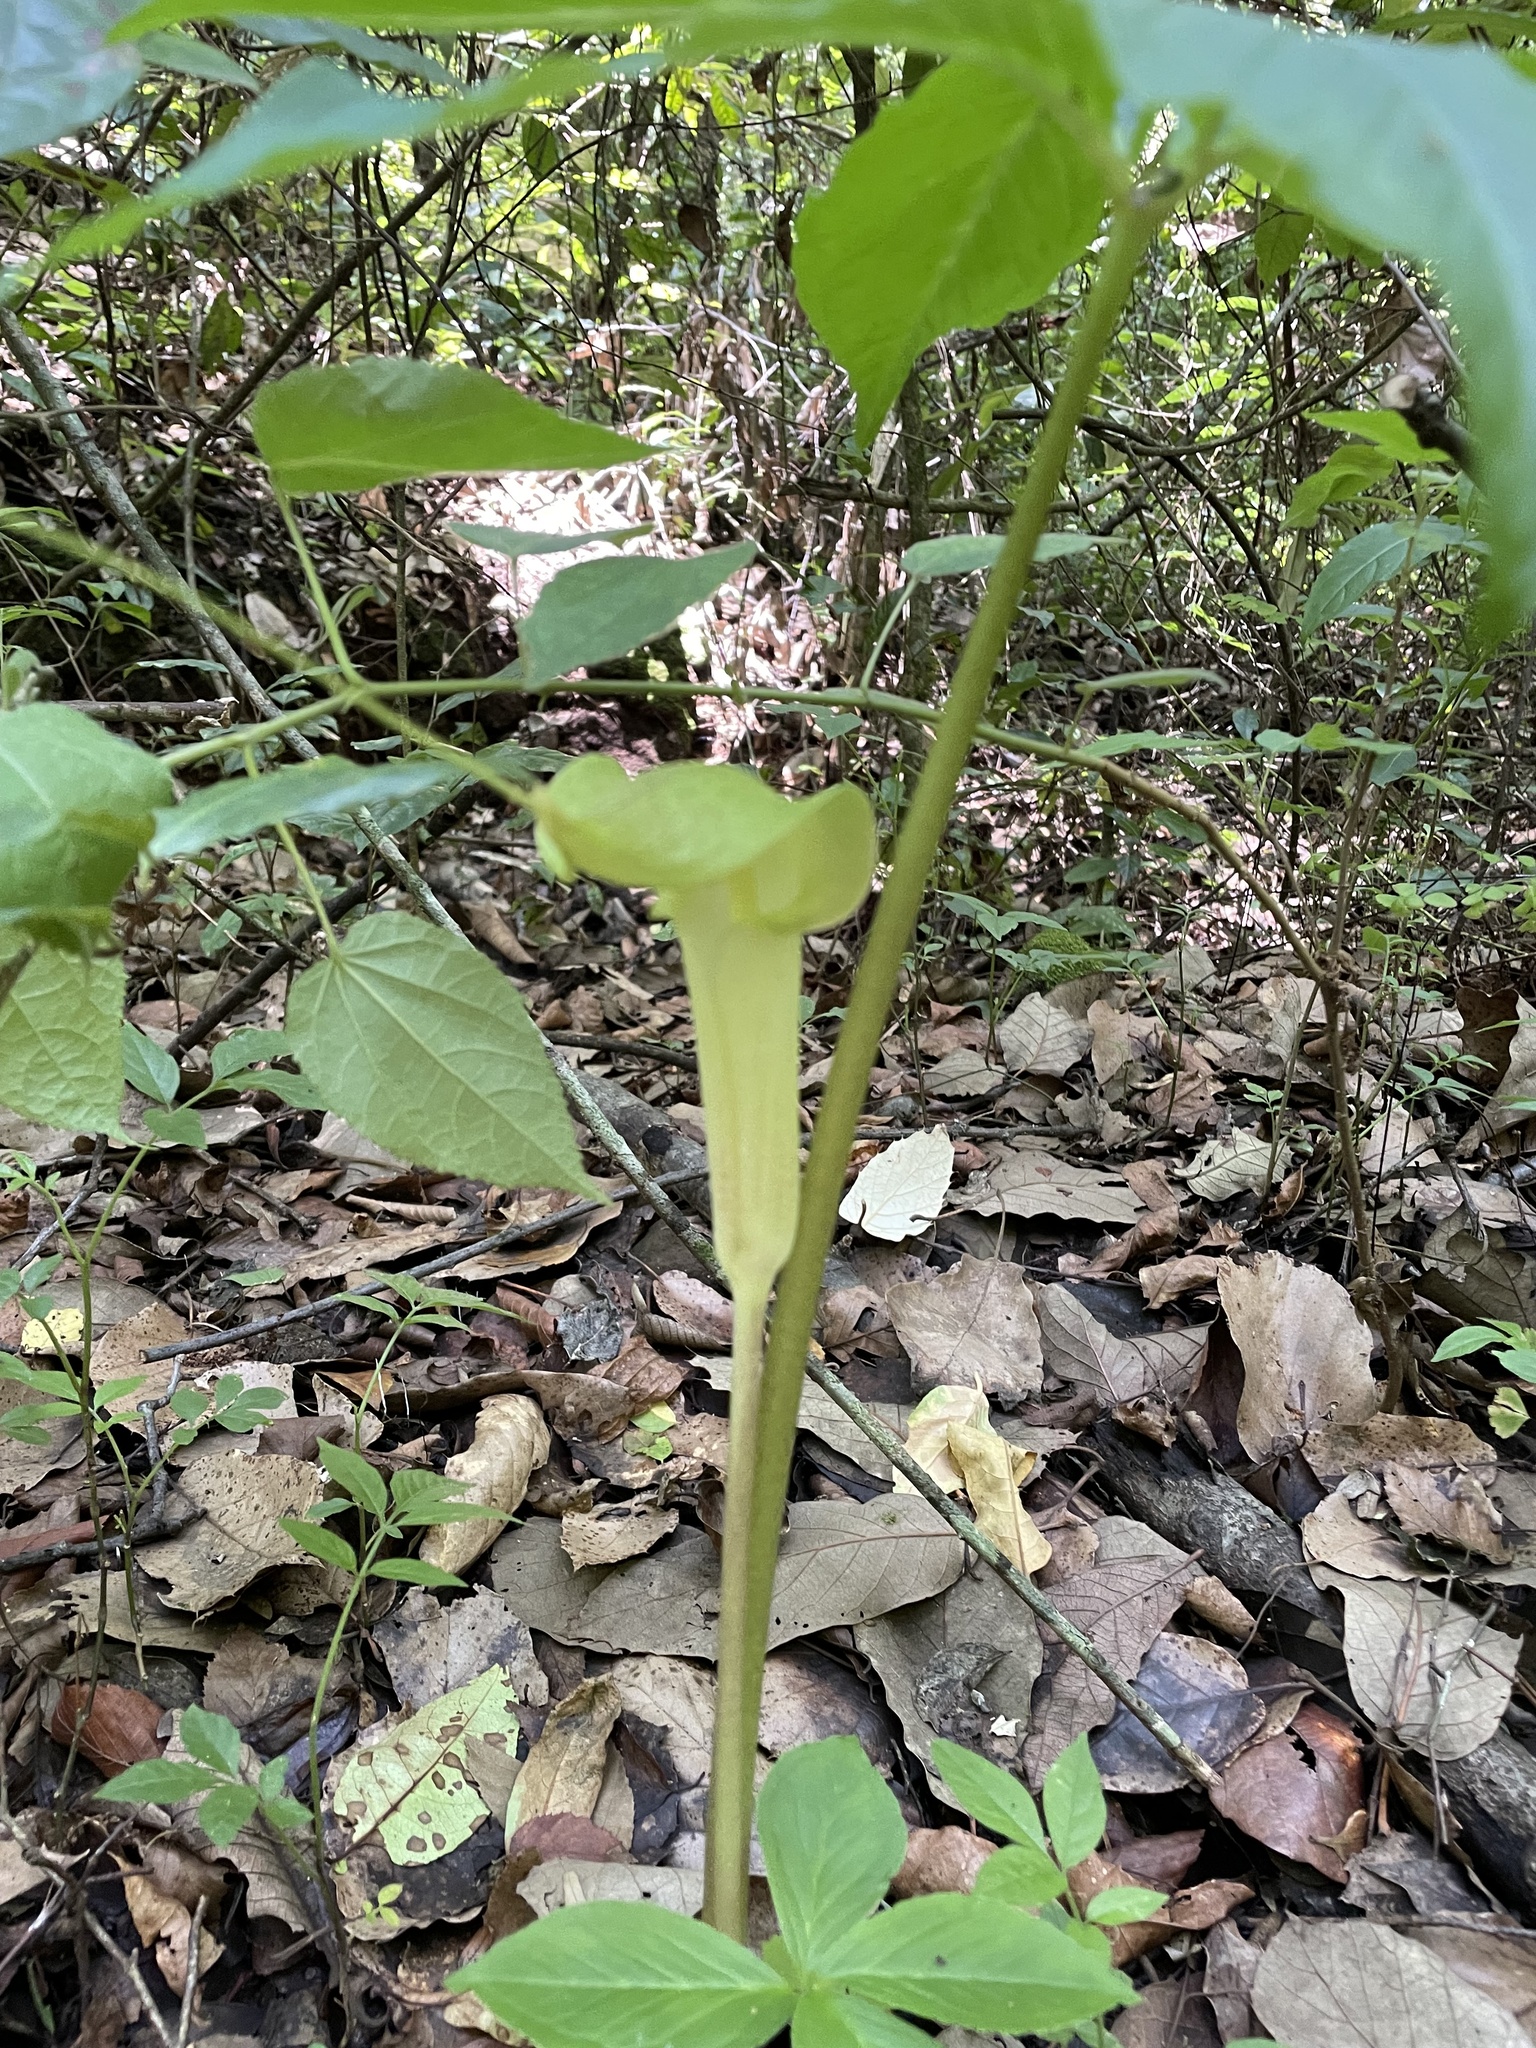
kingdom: Plantae
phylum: Tracheophyta
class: Liliopsida
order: Alismatales
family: Araceae
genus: Arisaema
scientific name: Arisaema macrospathum
